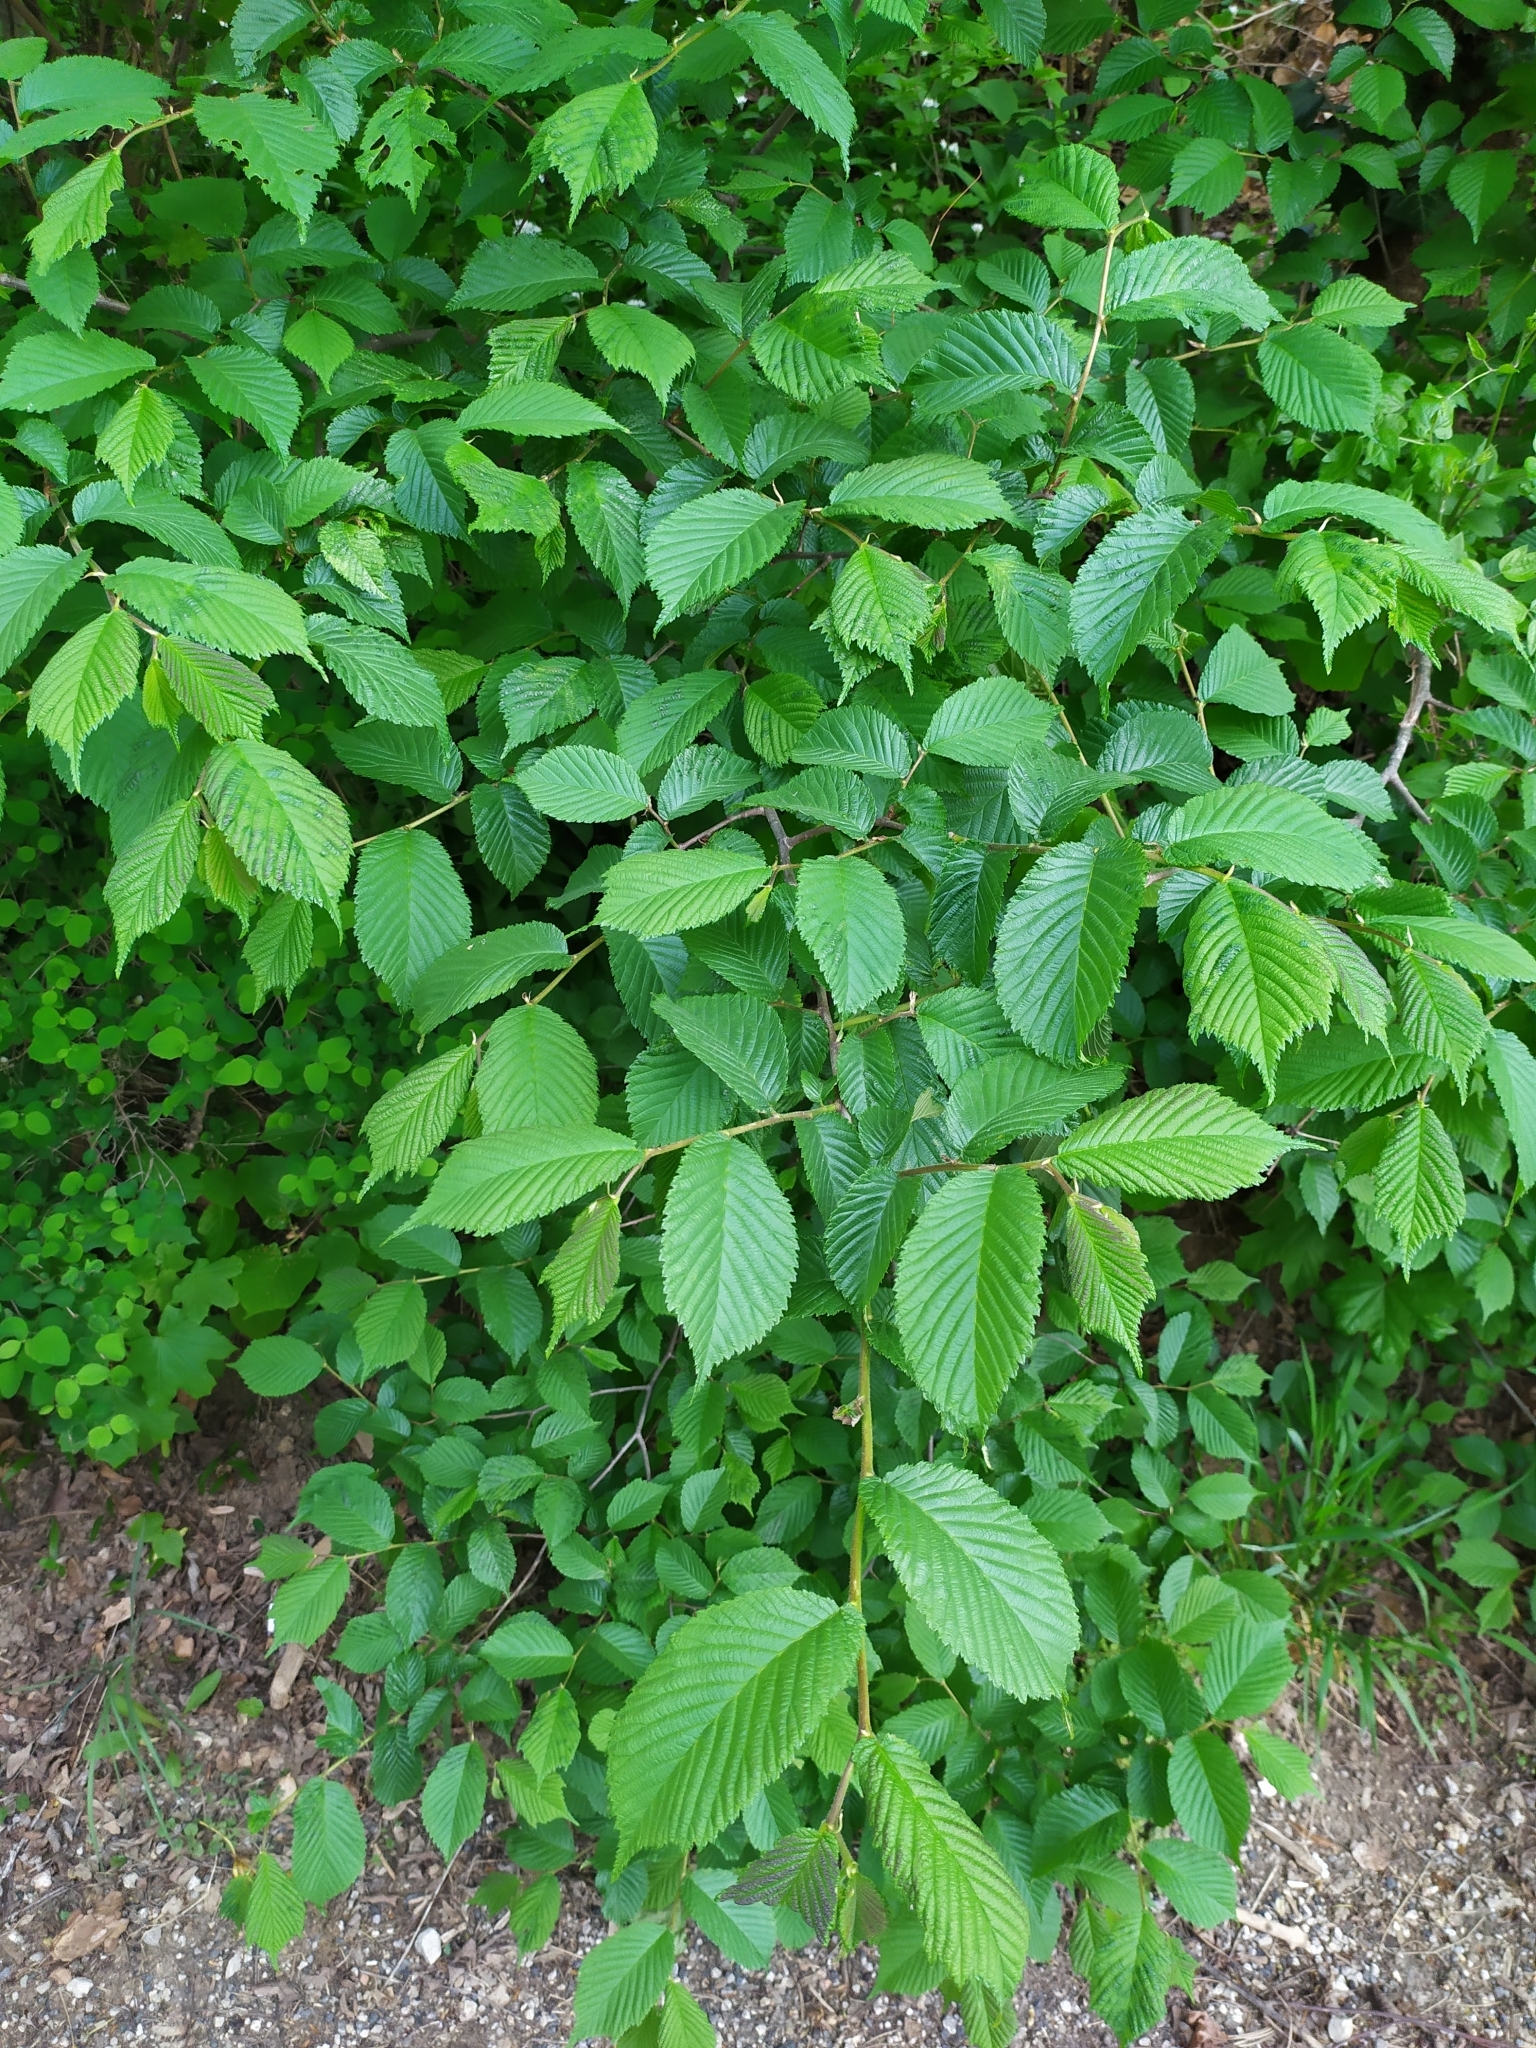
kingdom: Plantae
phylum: Tracheophyta
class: Magnoliopsida
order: Rosales
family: Ulmaceae
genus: Ulmus
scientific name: Ulmus glabra
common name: Wych elm
